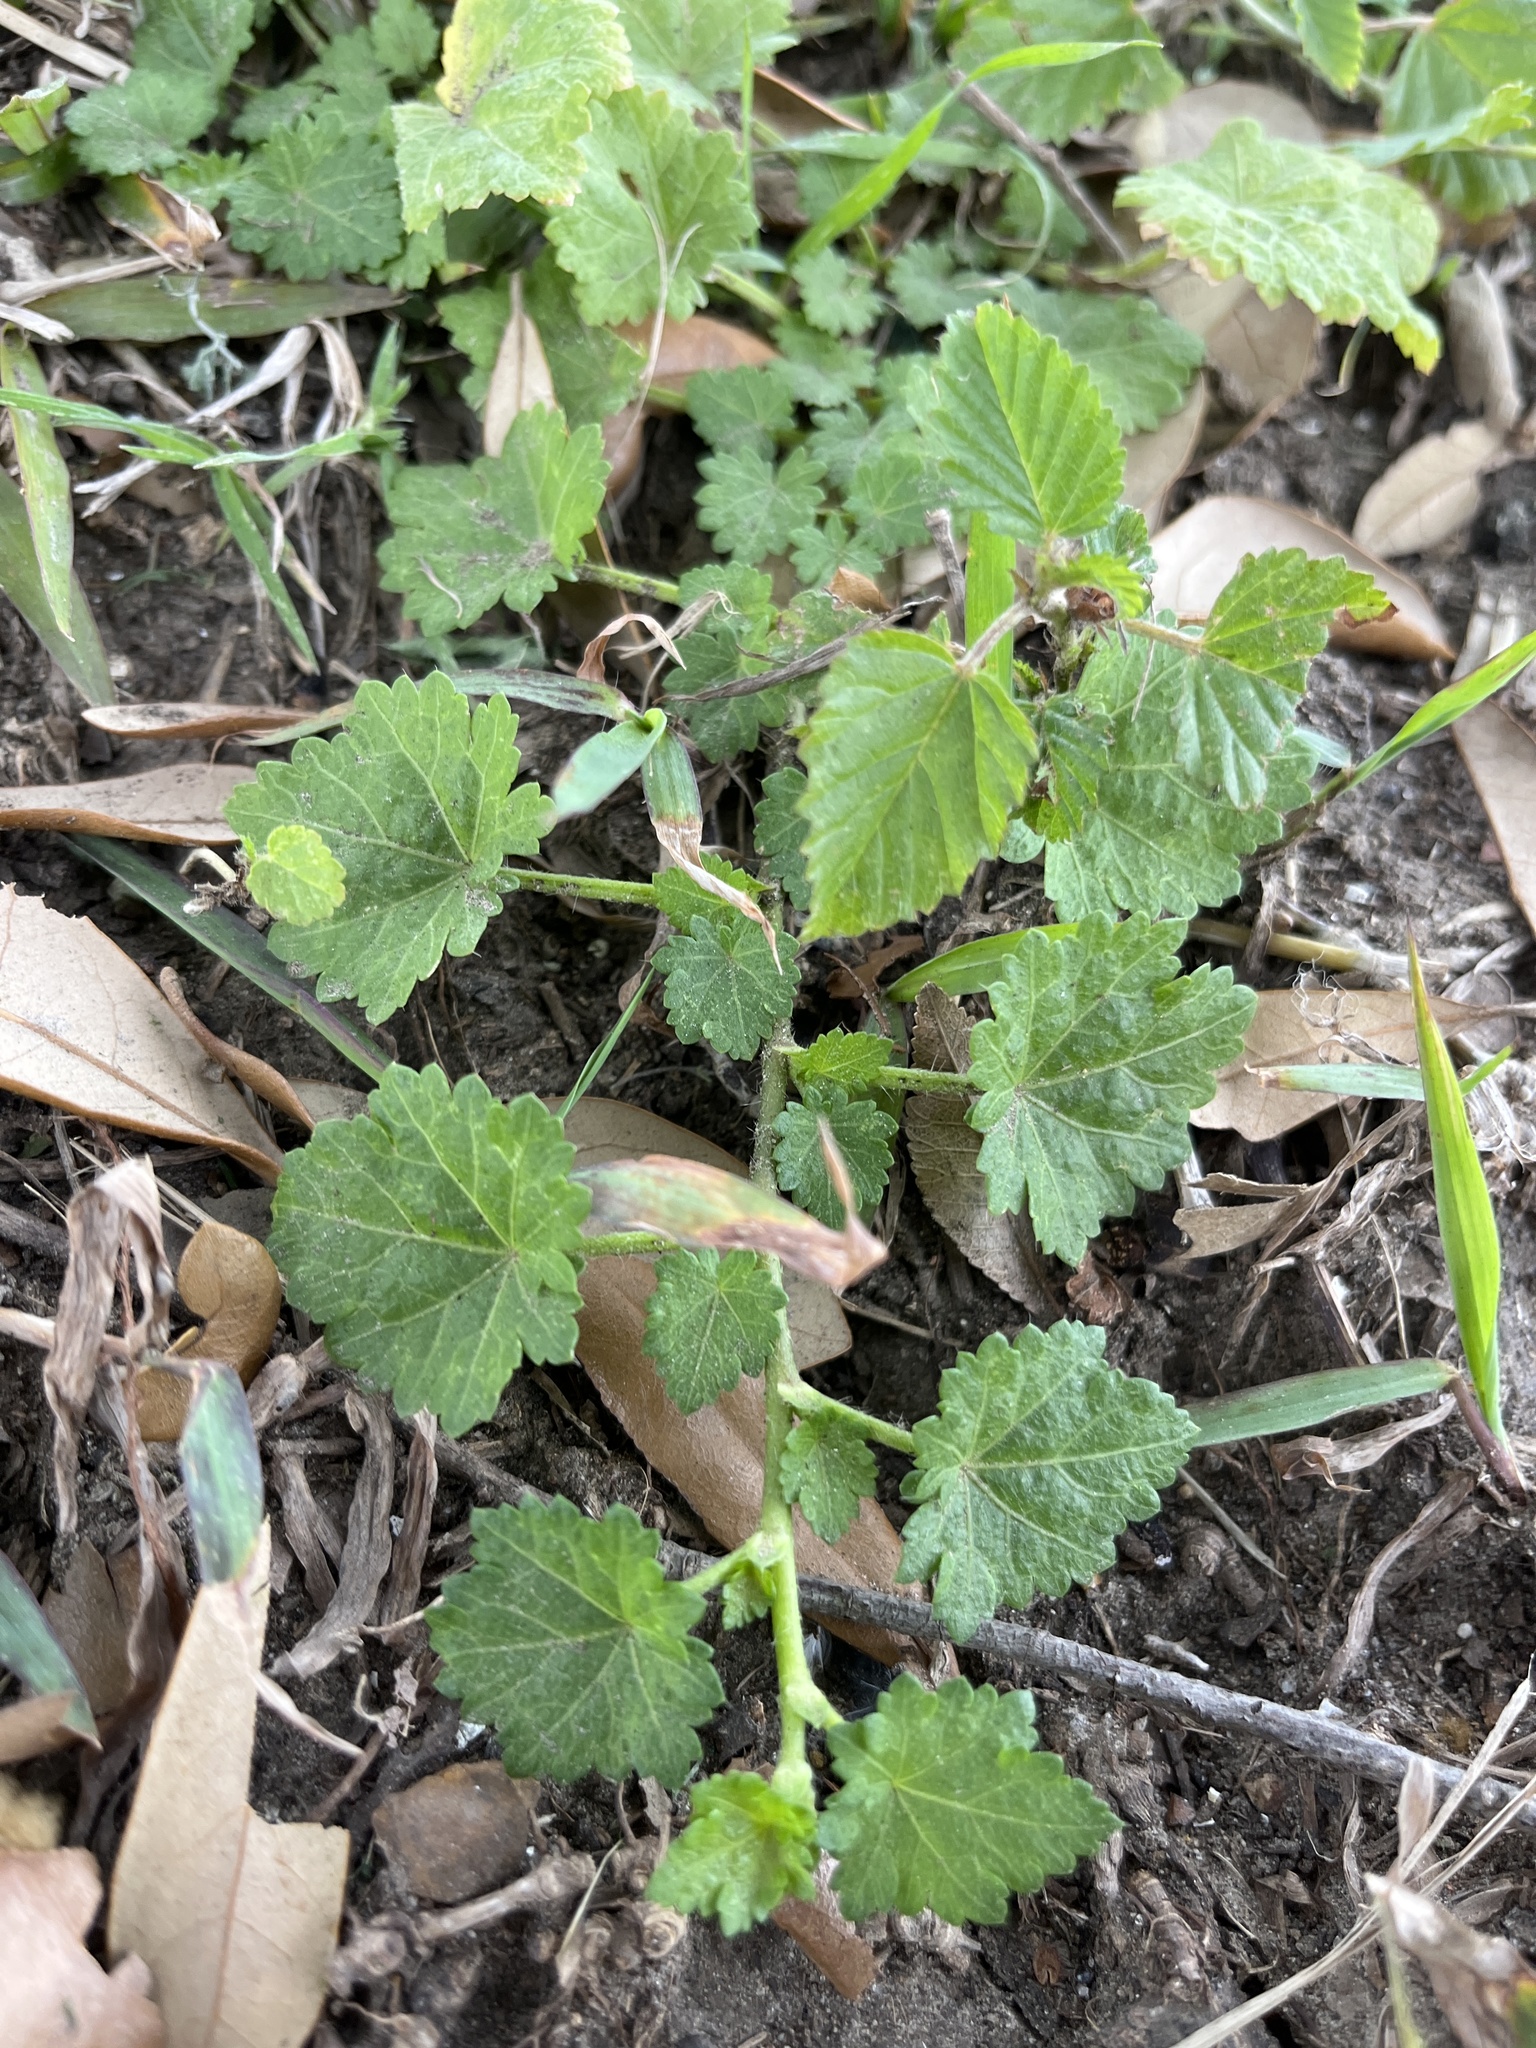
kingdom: Plantae
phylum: Tracheophyta
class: Magnoliopsida
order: Malvales
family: Malvaceae
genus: Modiola
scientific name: Modiola caroliniana
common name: Carolina bristlemallow
